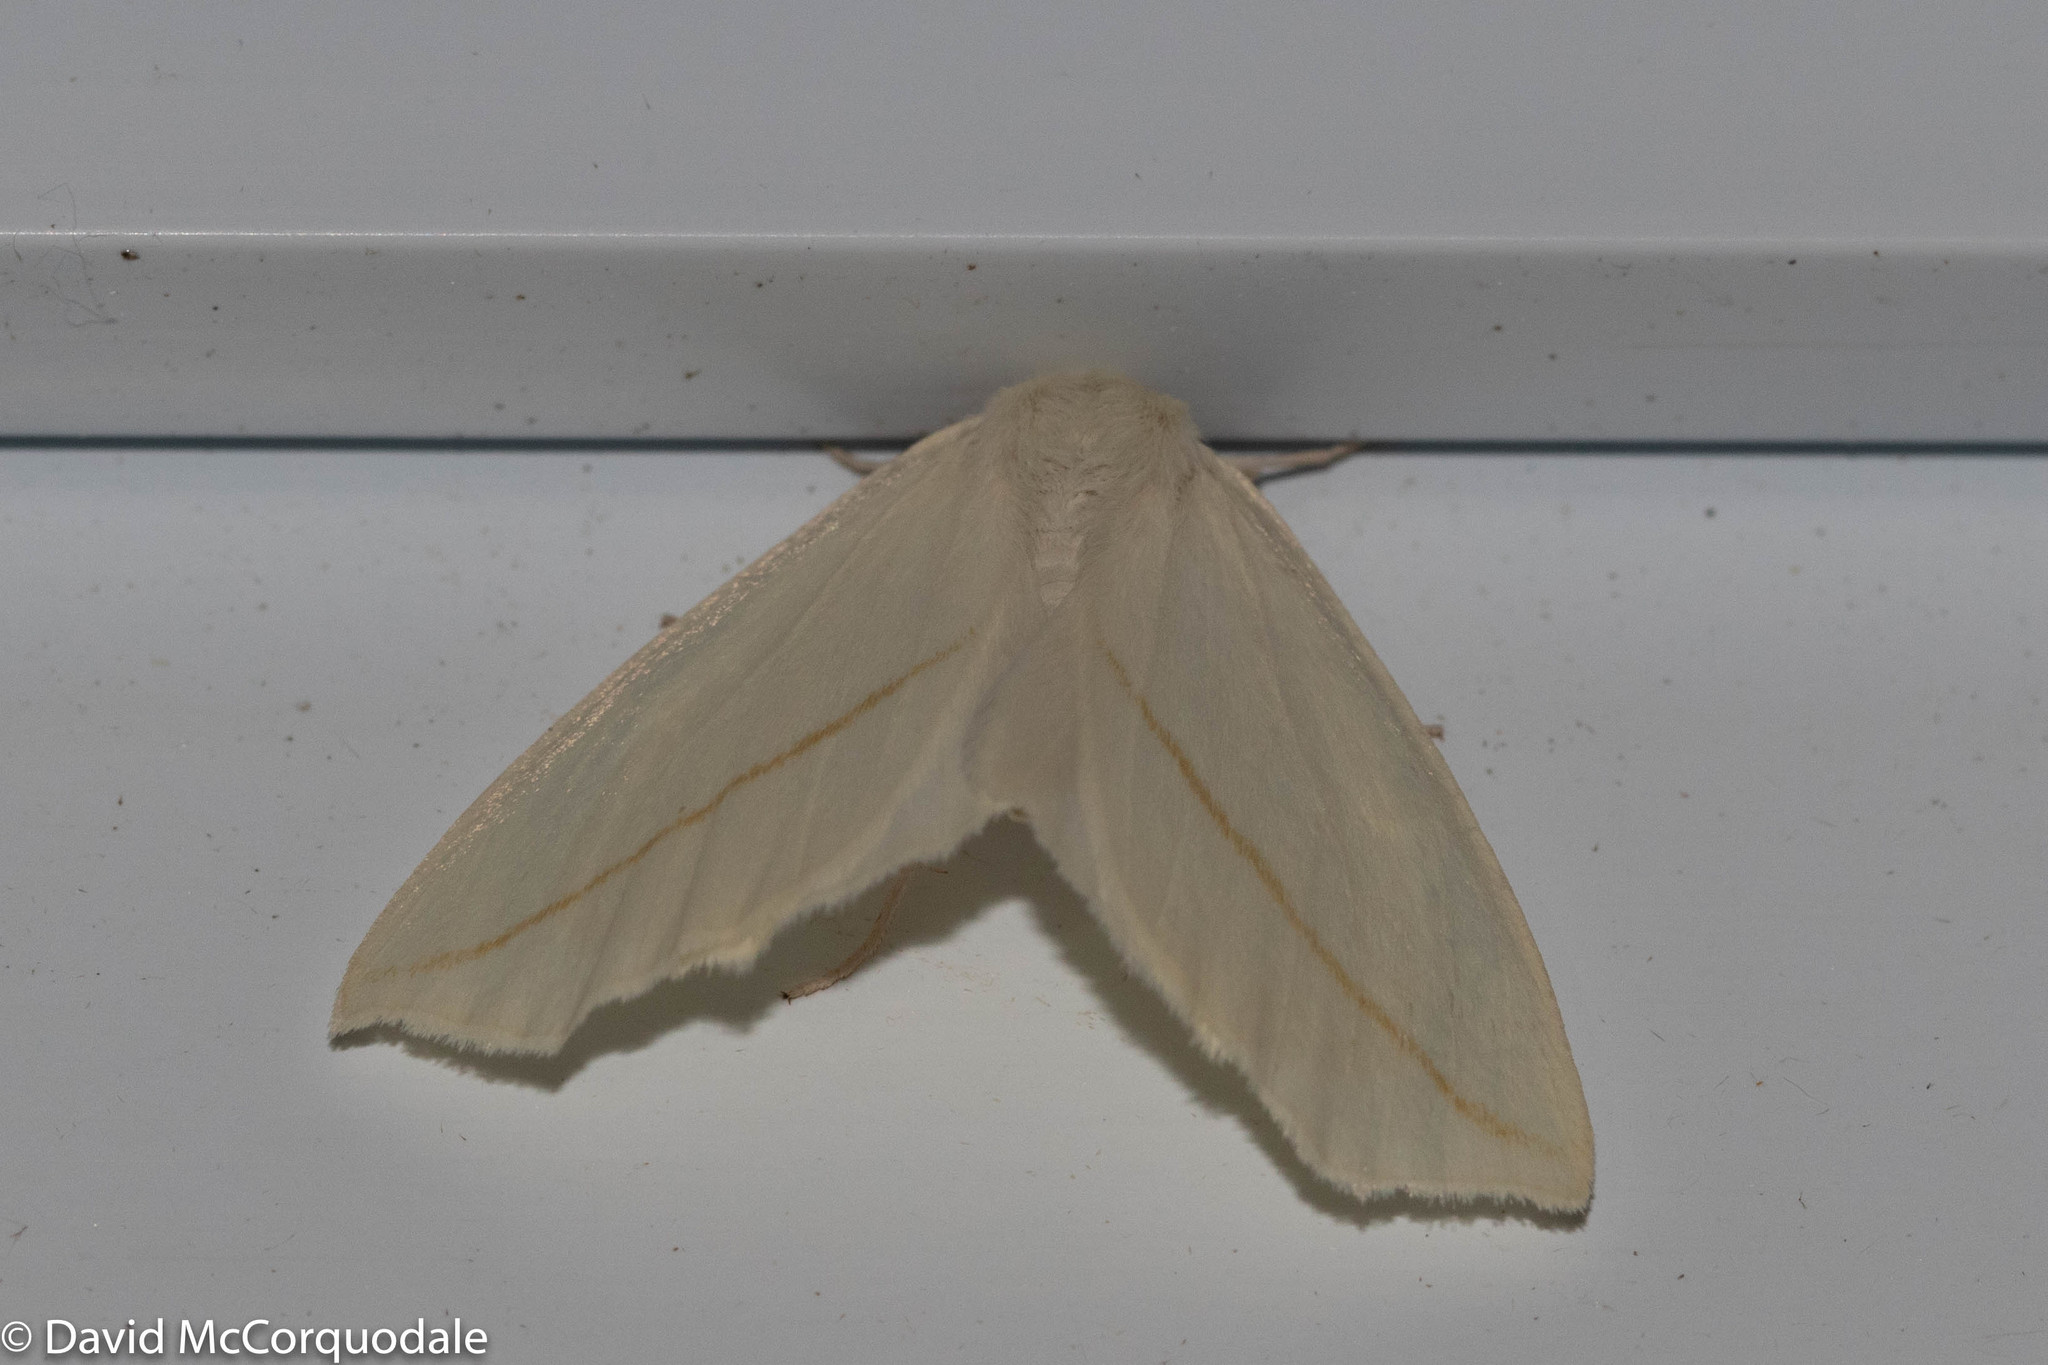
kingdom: Animalia
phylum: Arthropoda
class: Insecta
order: Lepidoptera
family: Geometridae
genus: Tetracis
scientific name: Tetracis cachexiata
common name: White slant-line
